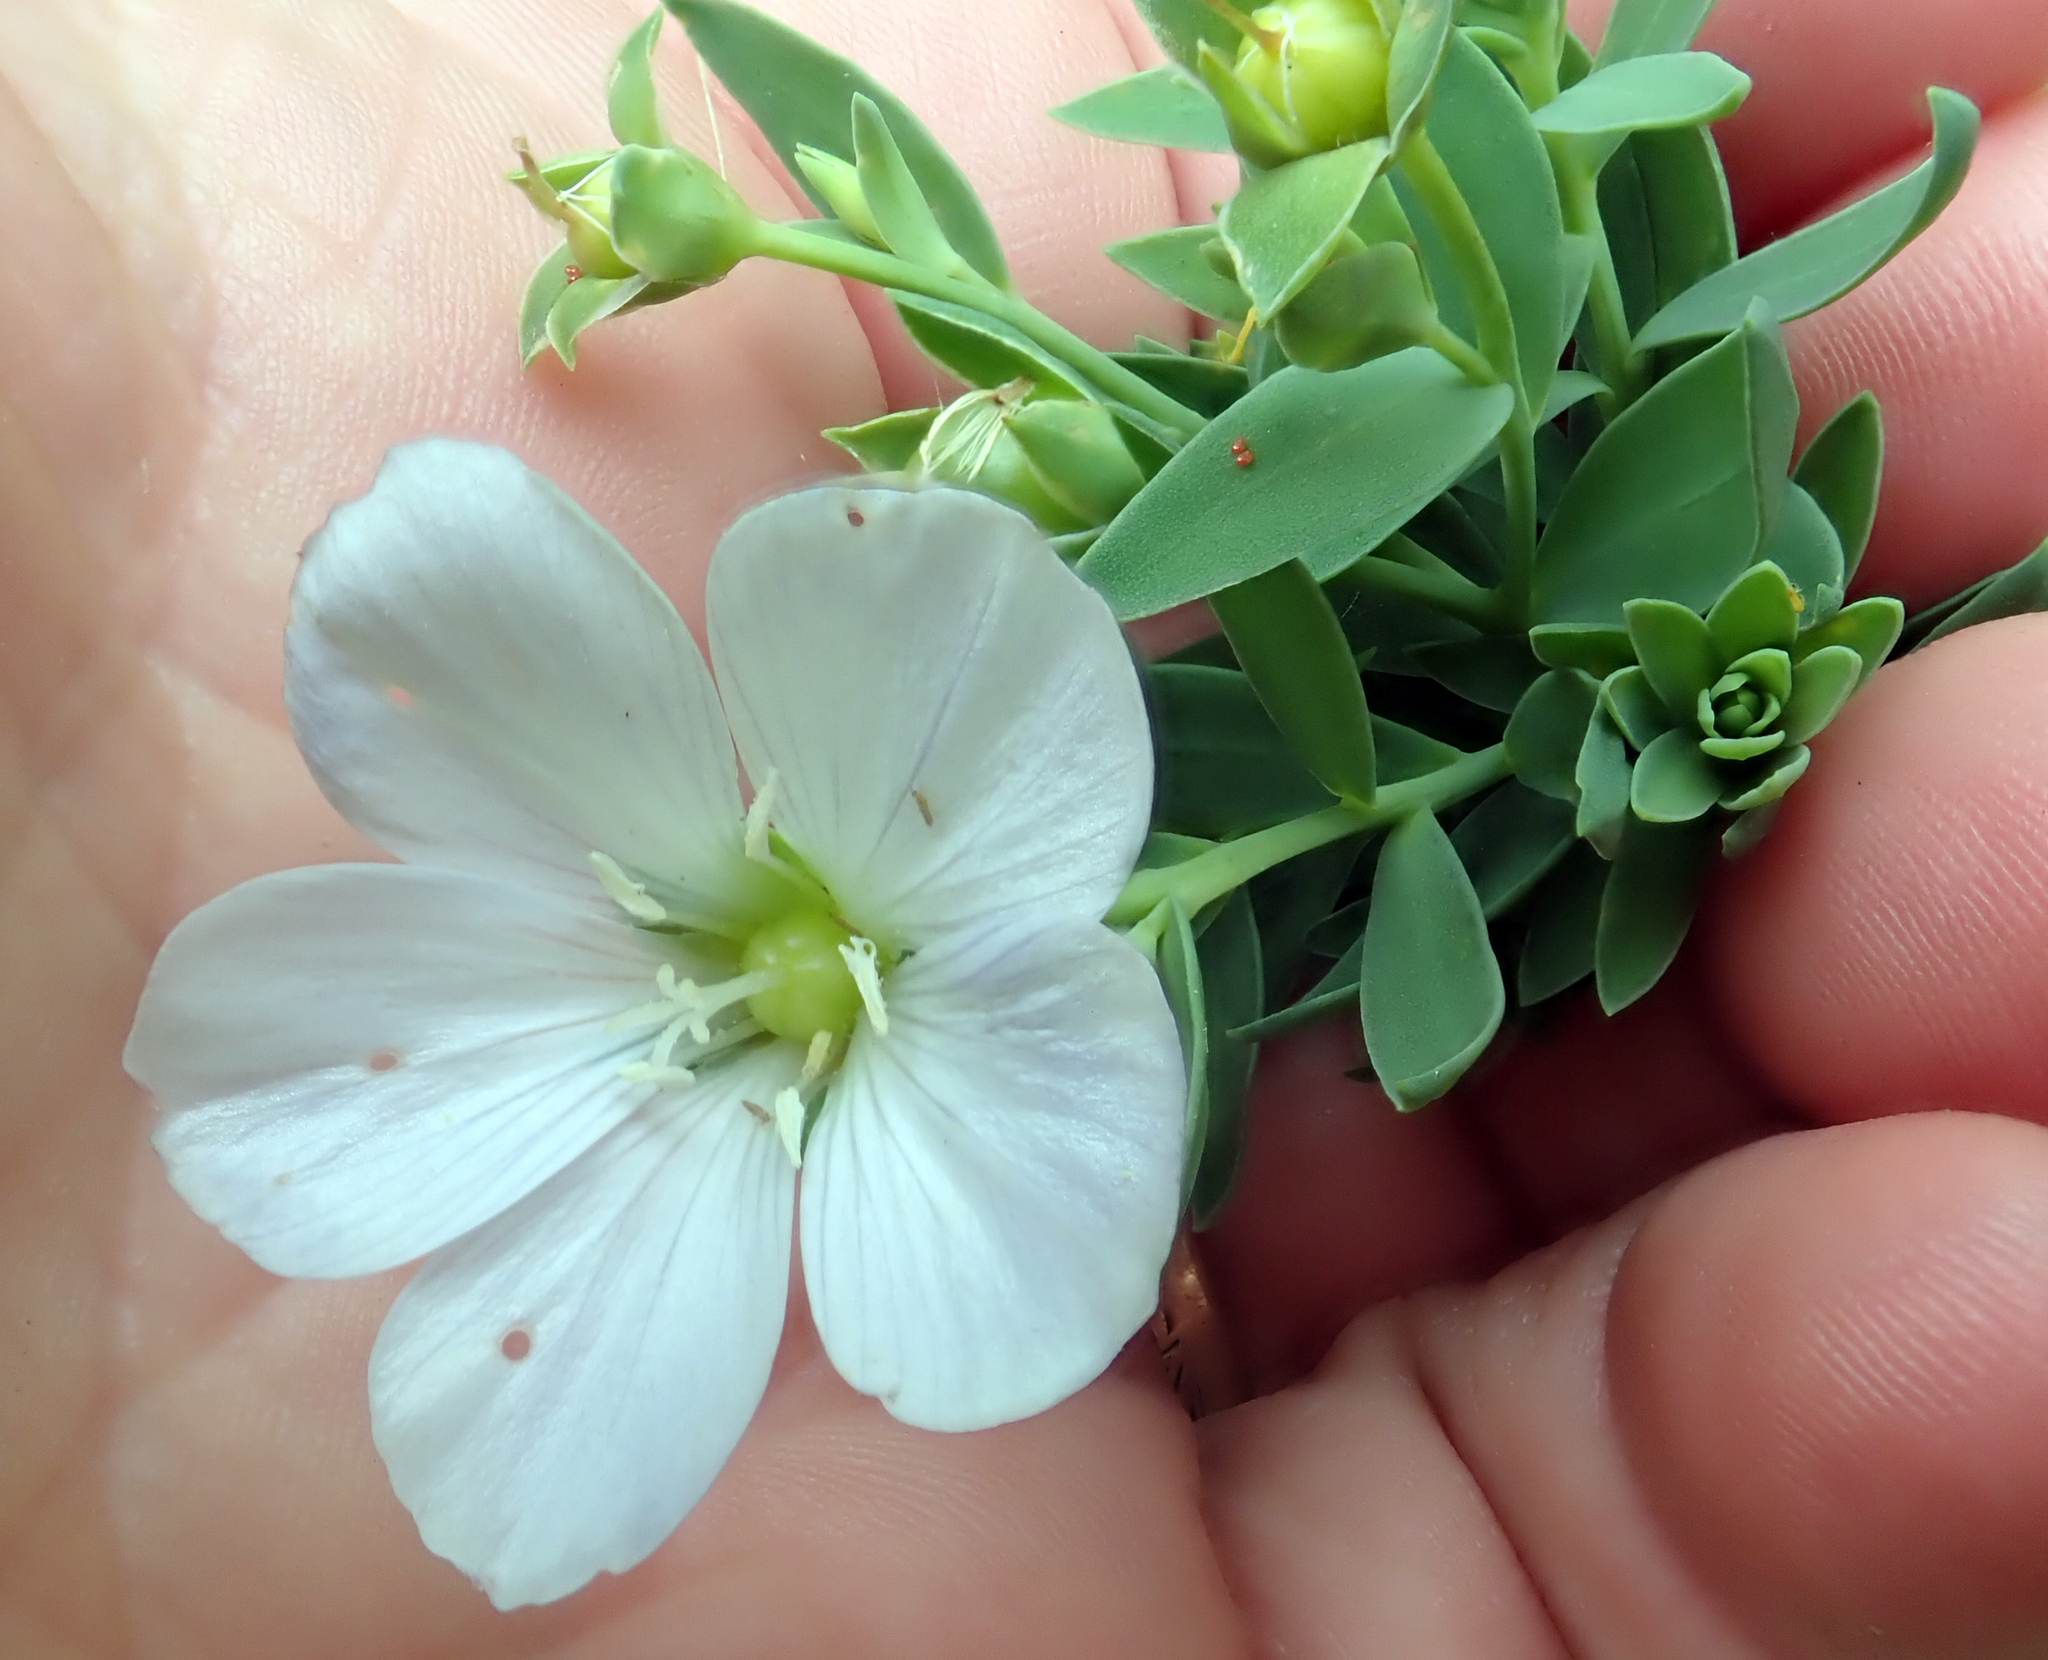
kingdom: Plantae
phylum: Tracheophyta
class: Magnoliopsida
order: Malpighiales
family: Linaceae
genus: Linum
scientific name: Linum monogynum
